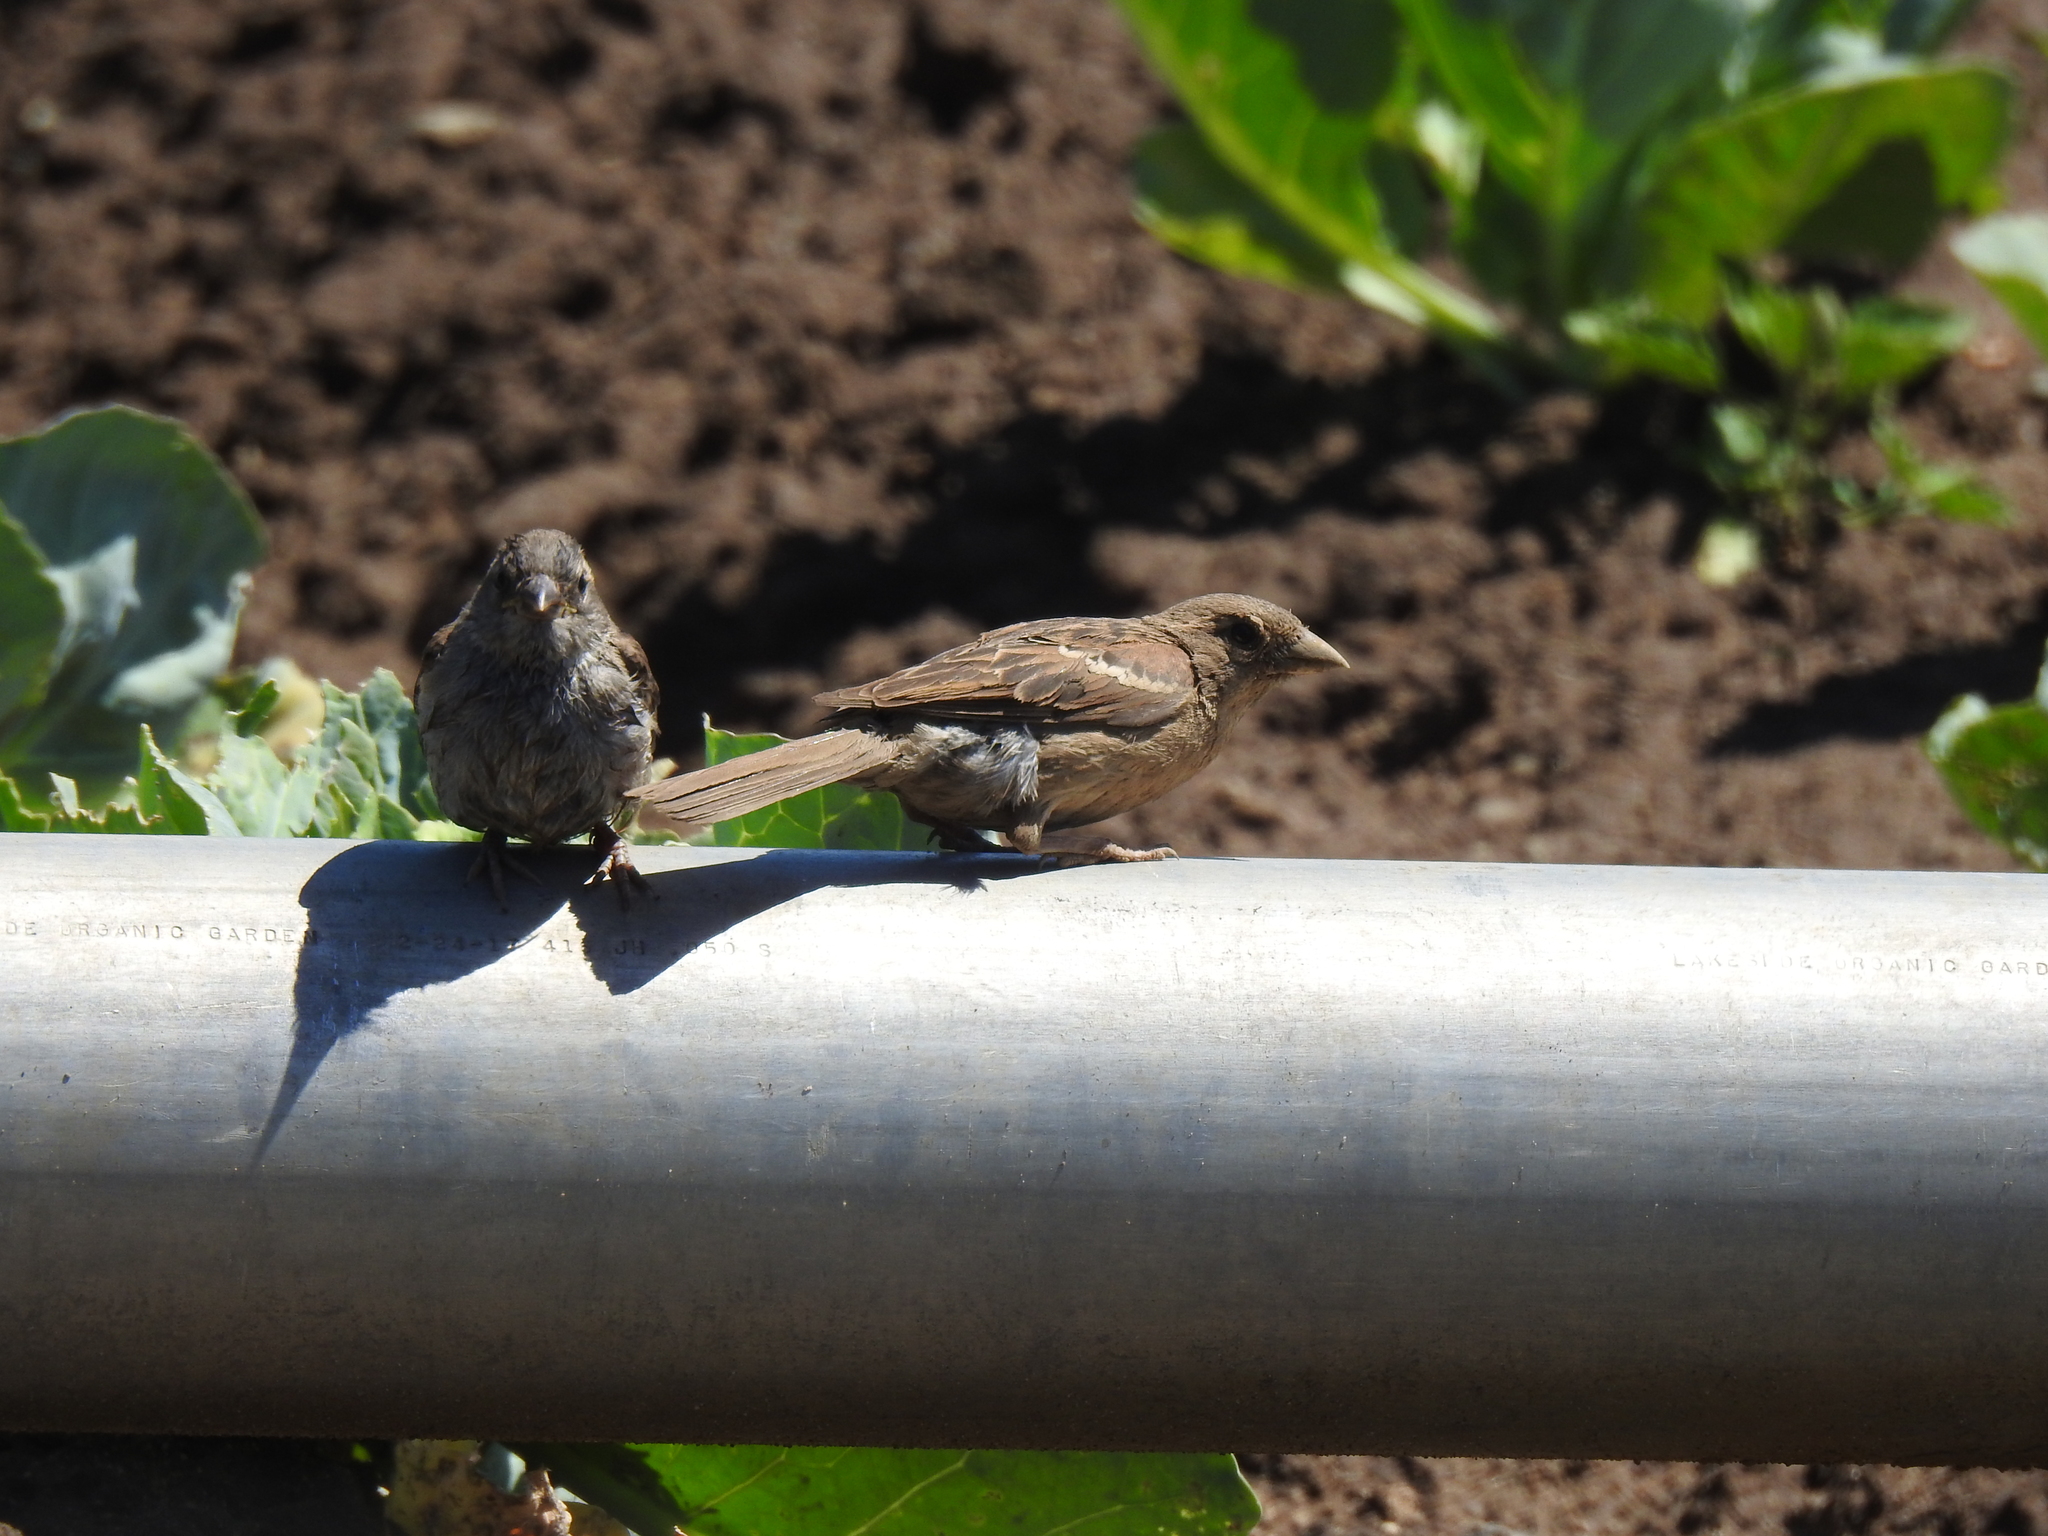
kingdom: Animalia
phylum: Chordata
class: Aves
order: Passeriformes
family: Passeridae
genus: Passer
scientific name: Passer domesticus
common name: House sparrow
